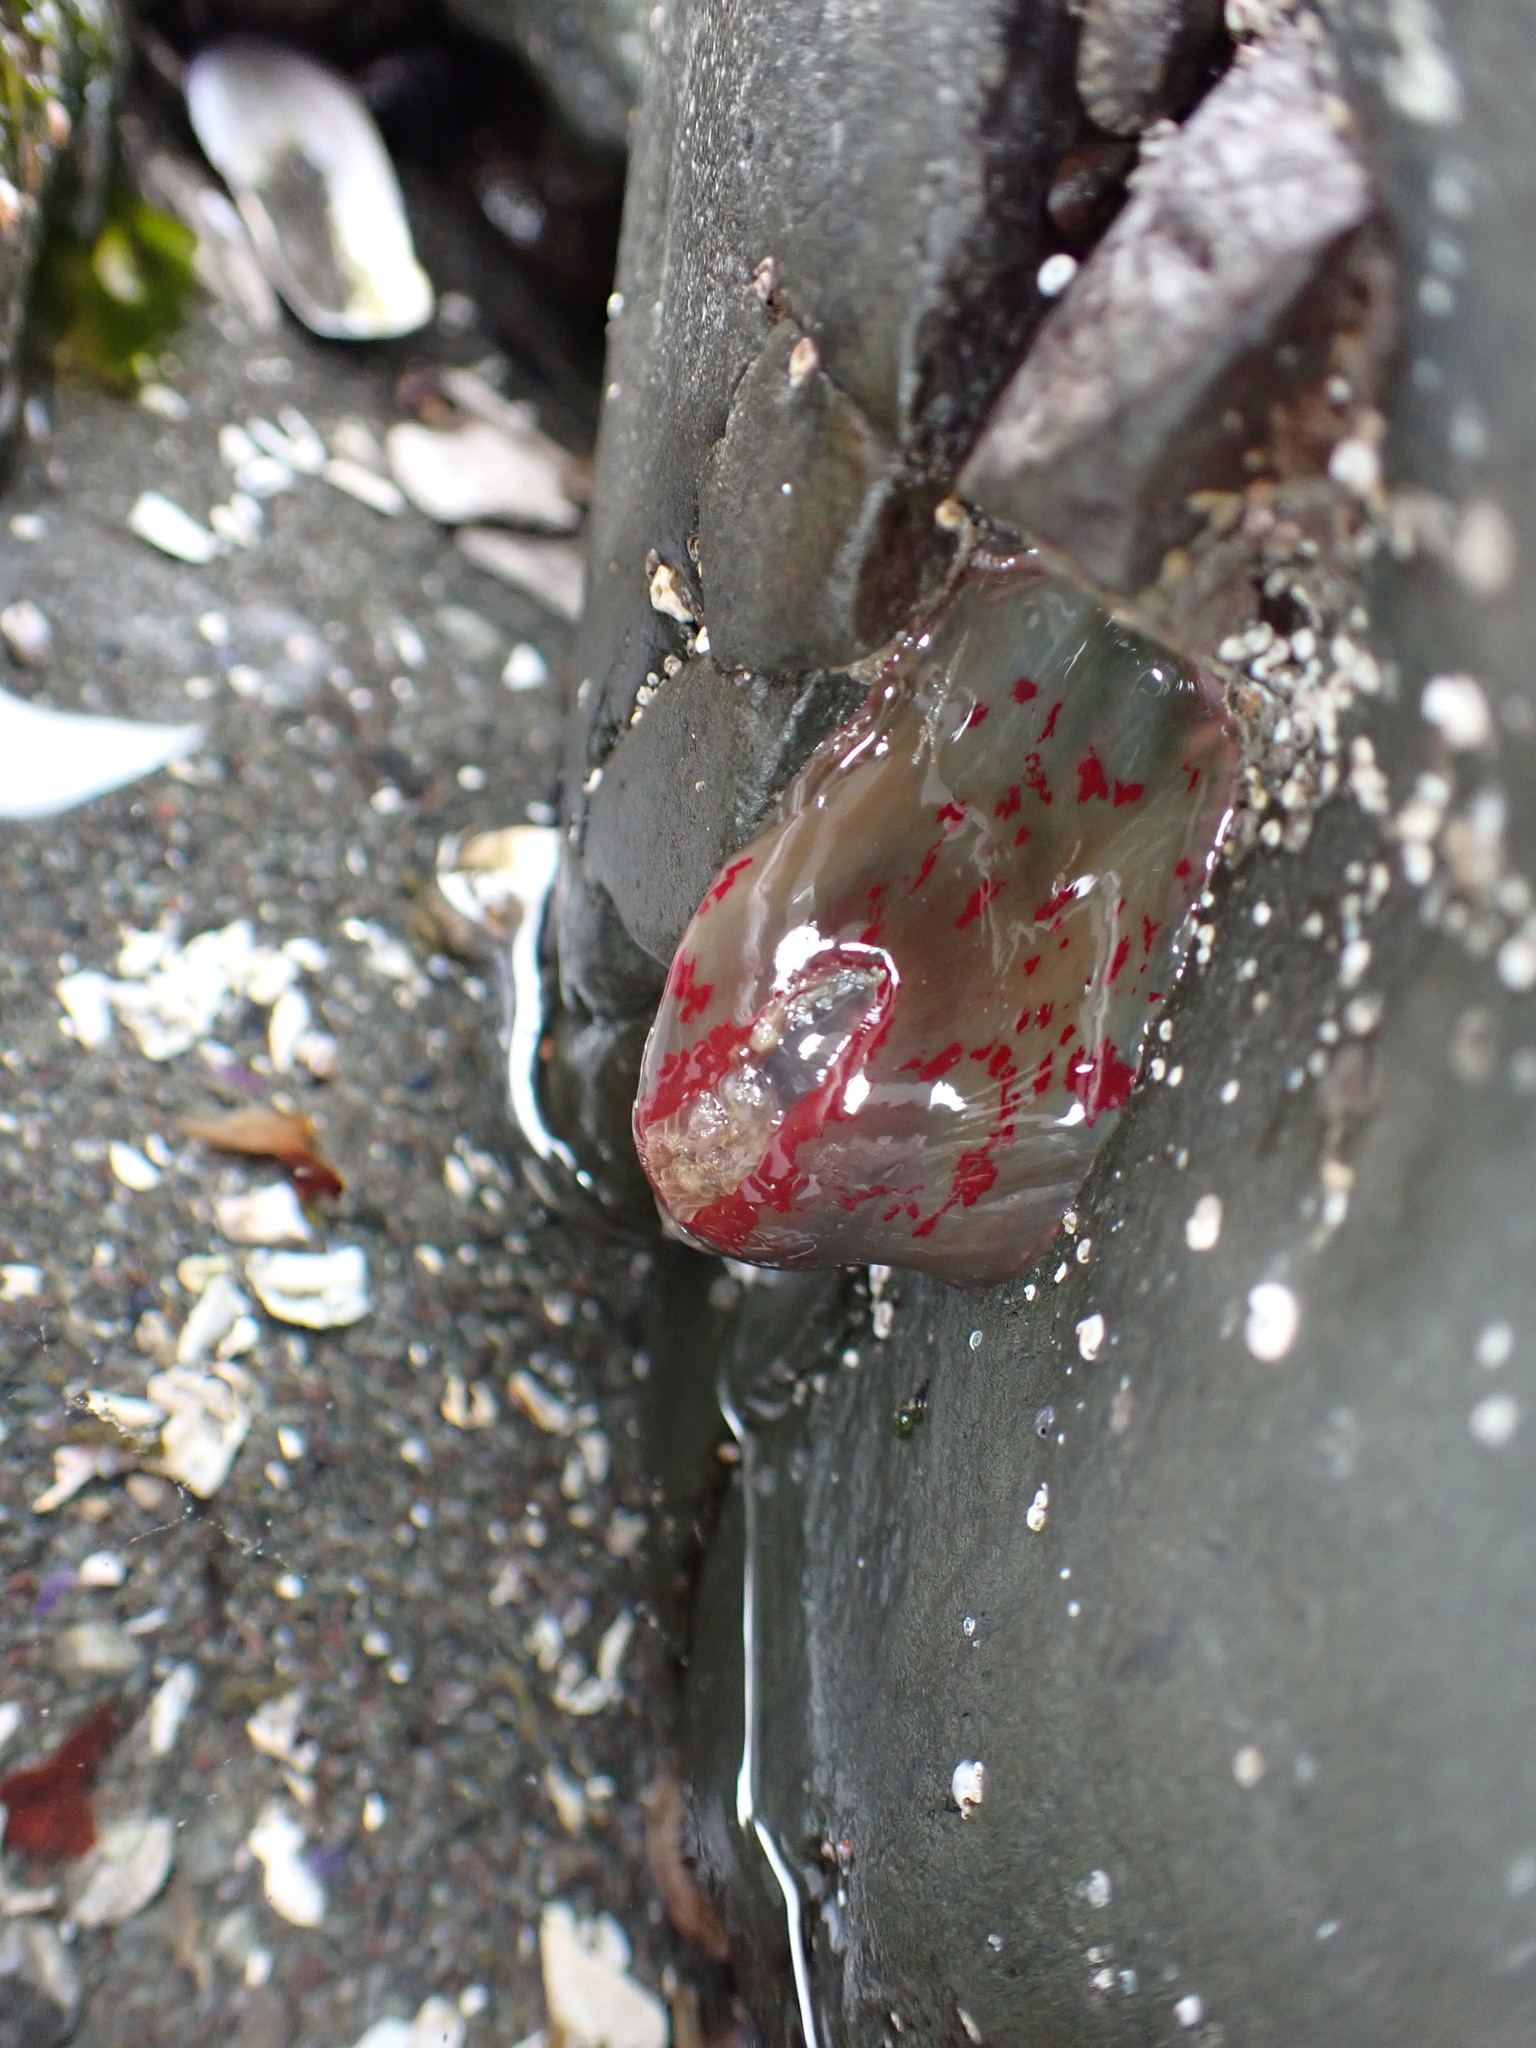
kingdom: Animalia
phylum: Cnidaria
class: Anthozoa
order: Actiniaria
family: Actiniidae
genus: Urticina
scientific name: Urticina grebelnyi
